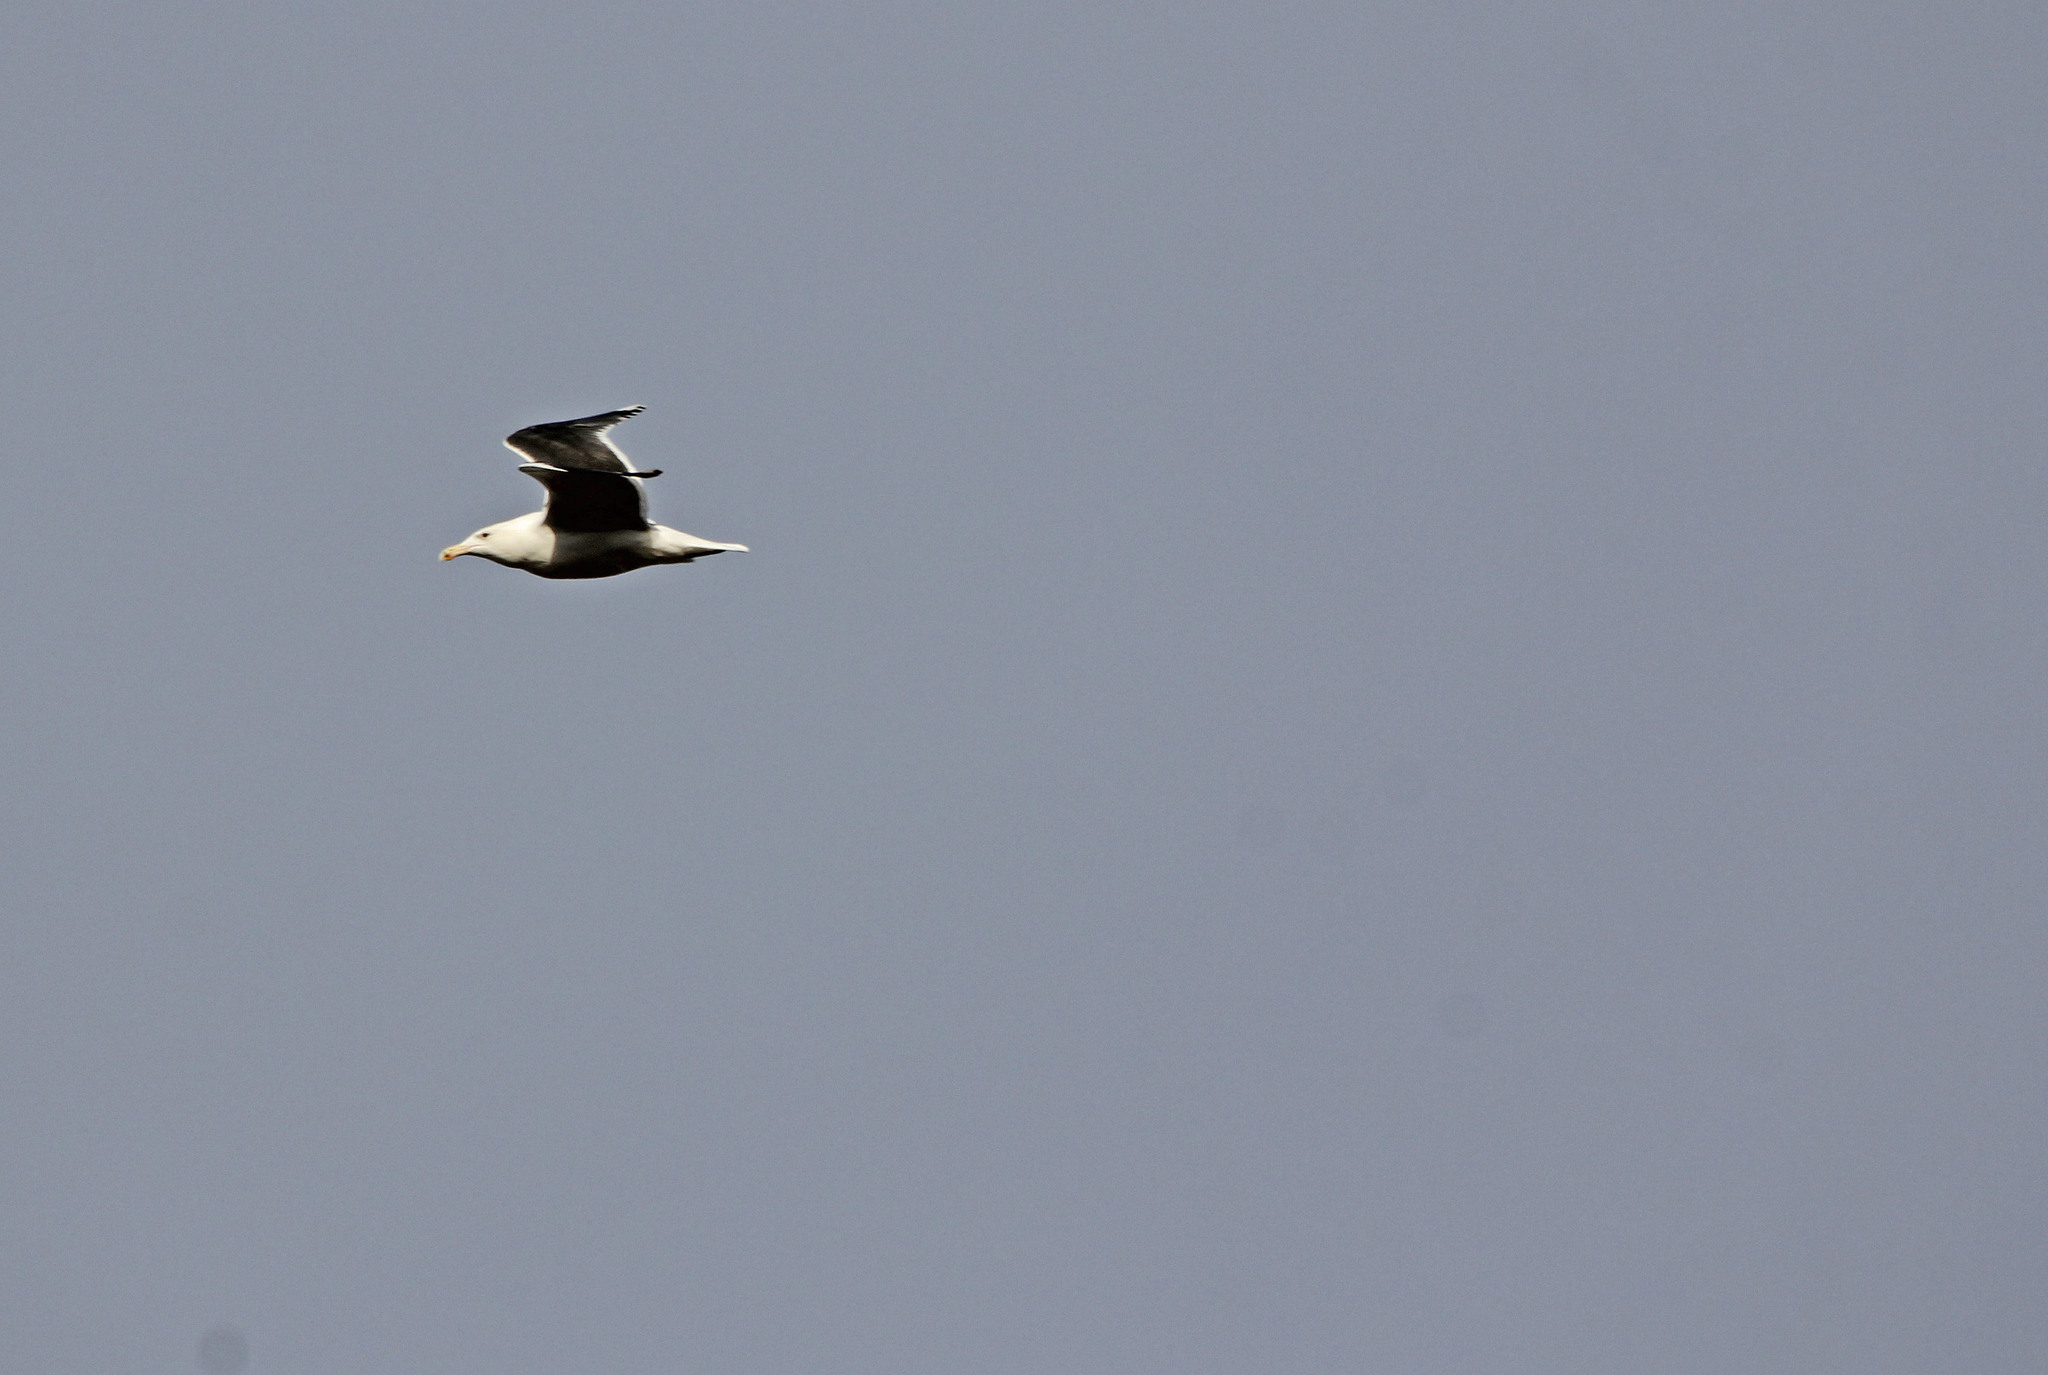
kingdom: Animalia
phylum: Chordata
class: Aves
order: Charadriiformes
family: Laridae
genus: Larus
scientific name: Larus marinus
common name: Great black-backed gull
